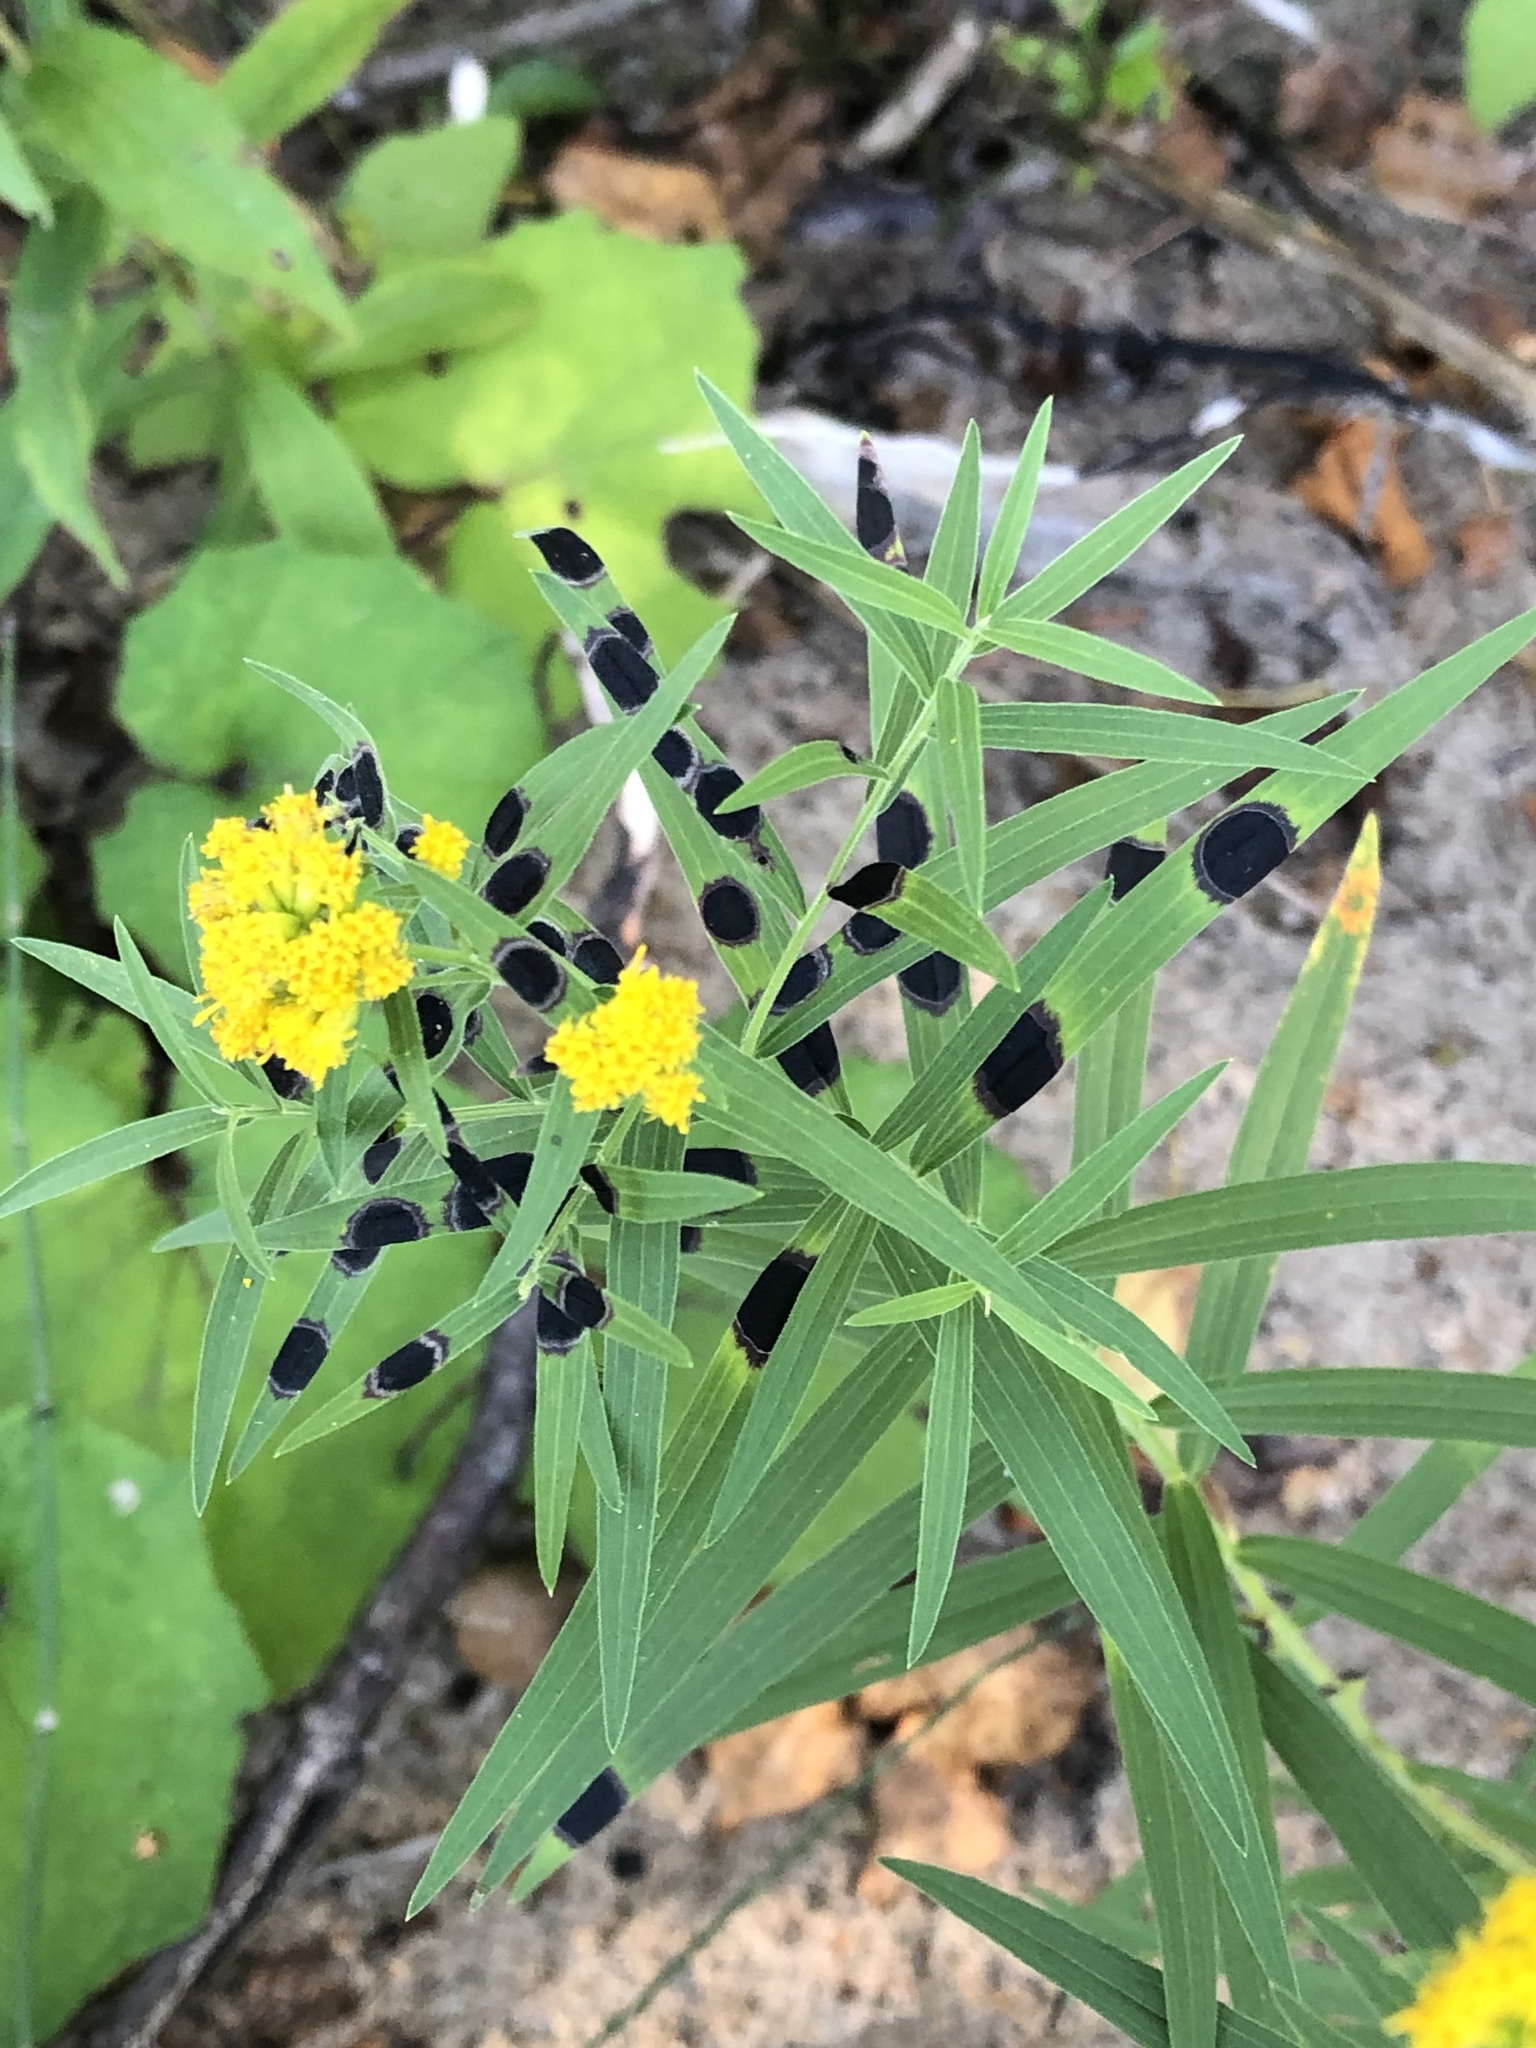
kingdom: Animalia
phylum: Arthropoda
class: Insecta
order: Diptera
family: Cecidomyiidae
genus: Asteromyia
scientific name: Asteromyia euthamiae
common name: Euthamia leaf gall midge
